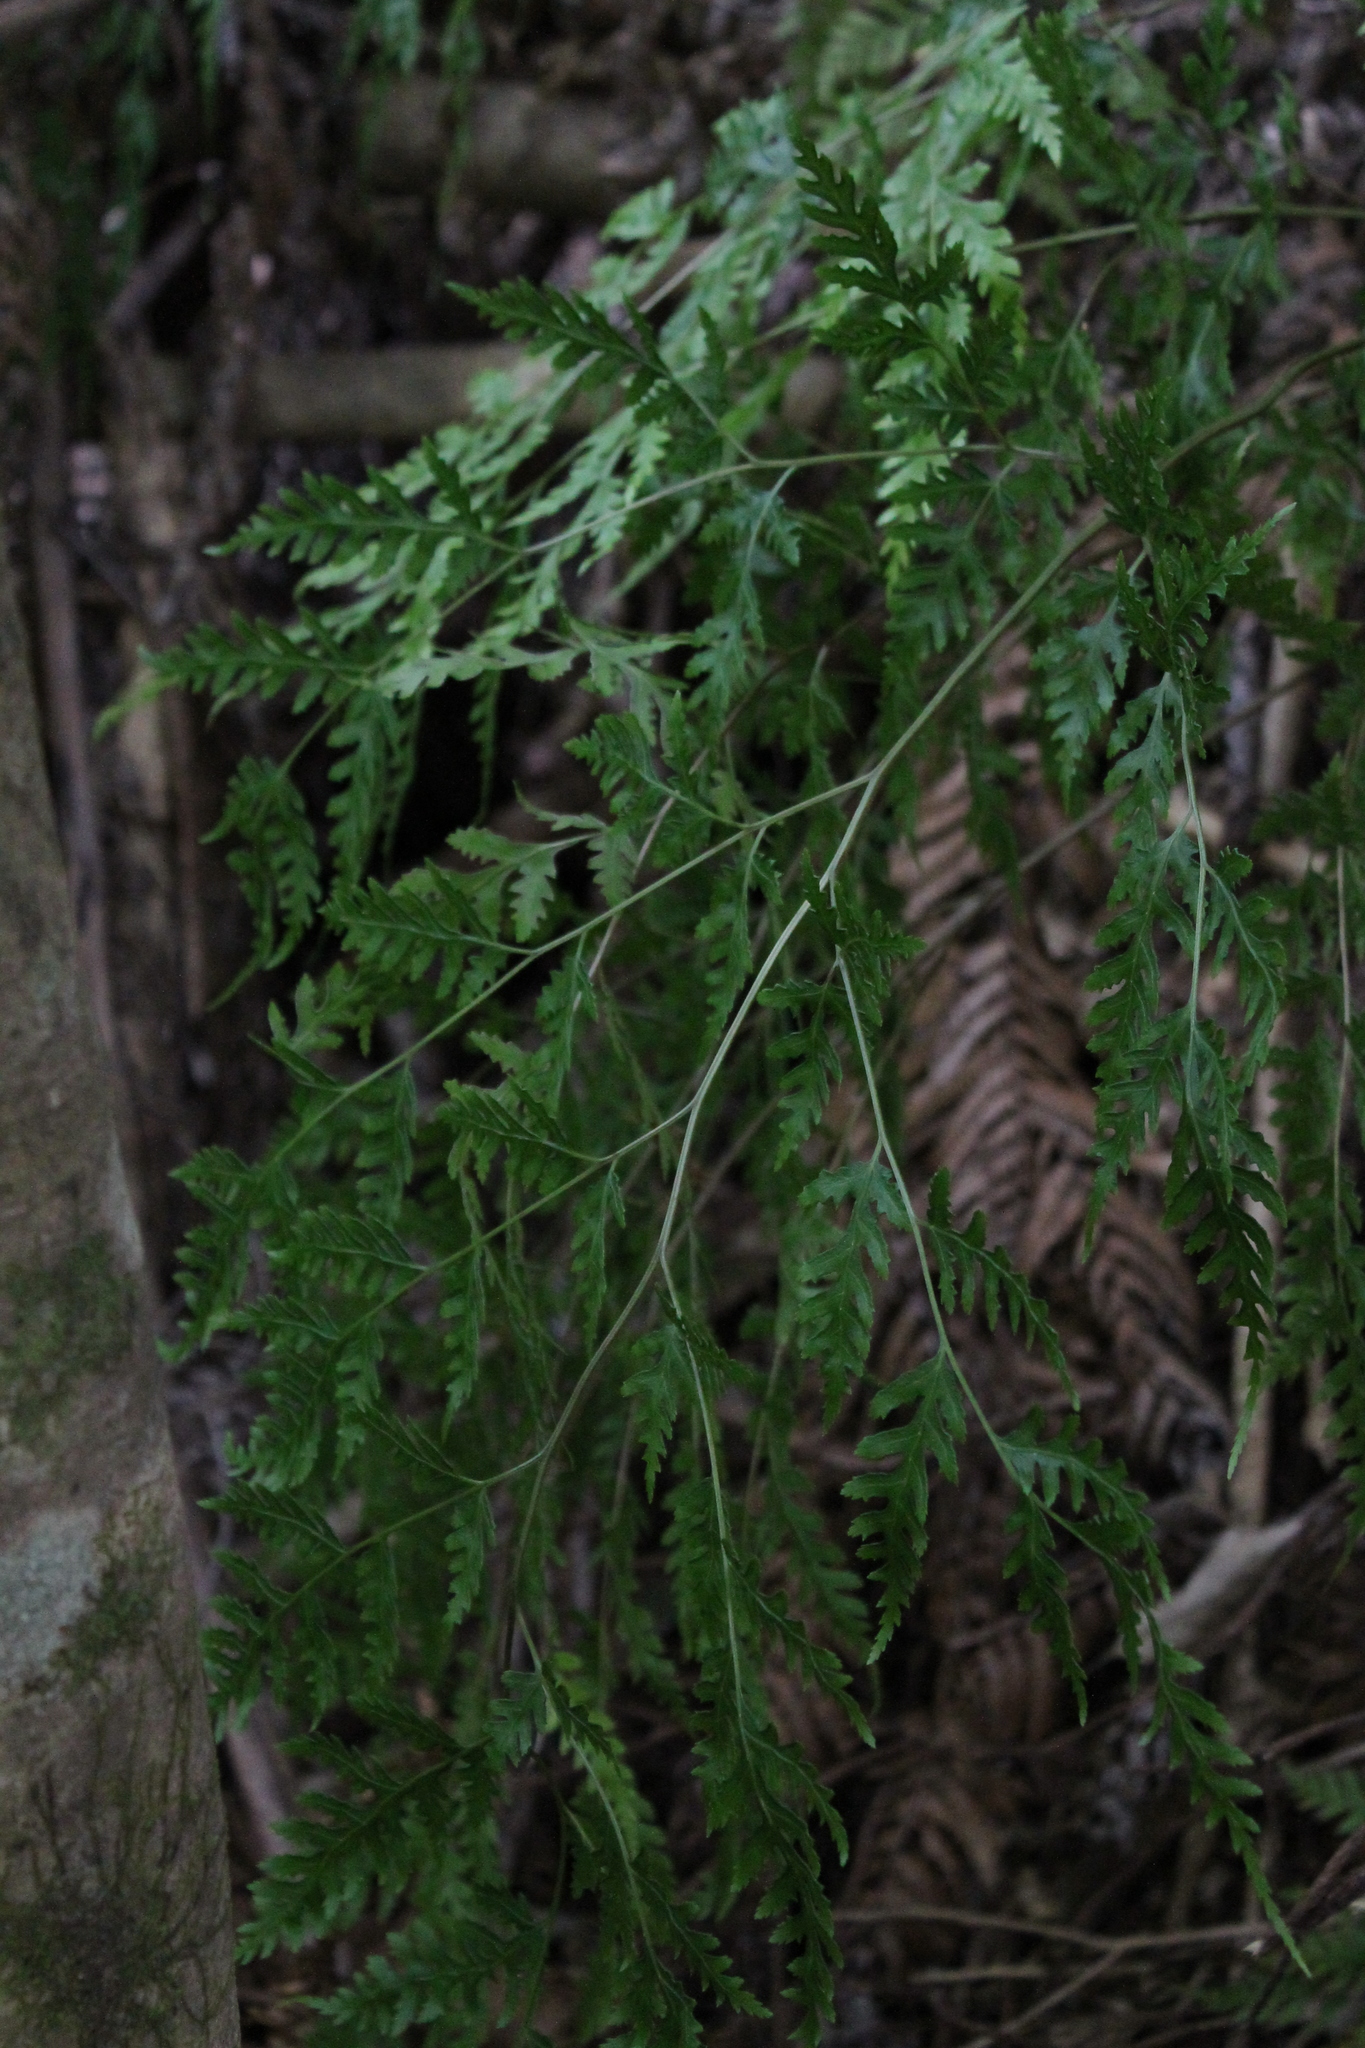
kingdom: Plantae
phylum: Tracheophyta
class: Polypodiopsida
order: Polypodiales
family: Pteridaceae
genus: Pteris
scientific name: Pteris macilenta
